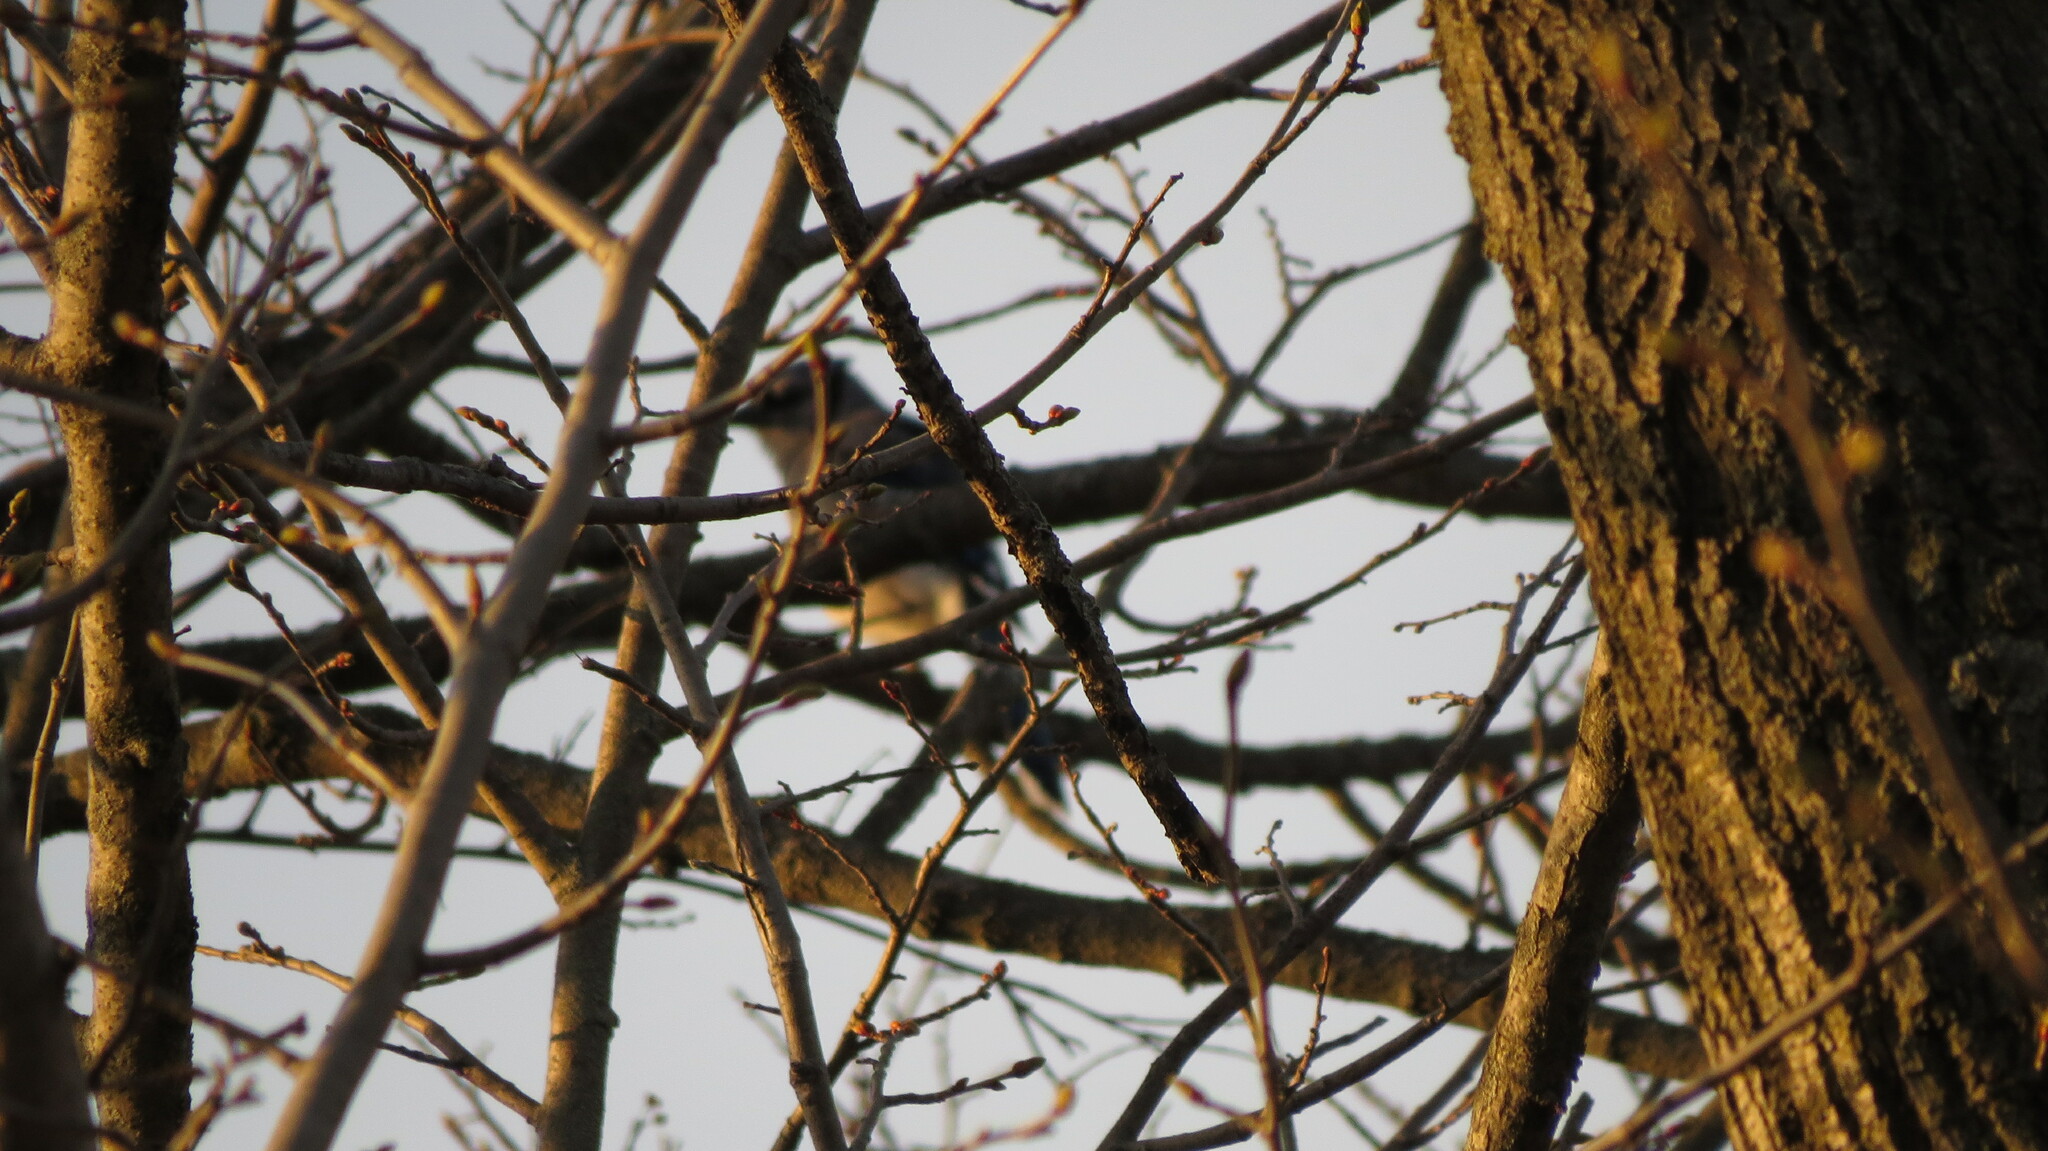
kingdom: Animalia
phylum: Chordata
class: Aves
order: Passeriformes
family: Corvidae
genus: Cyanocitta
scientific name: Cyanocitta cristata
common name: Blue jay
